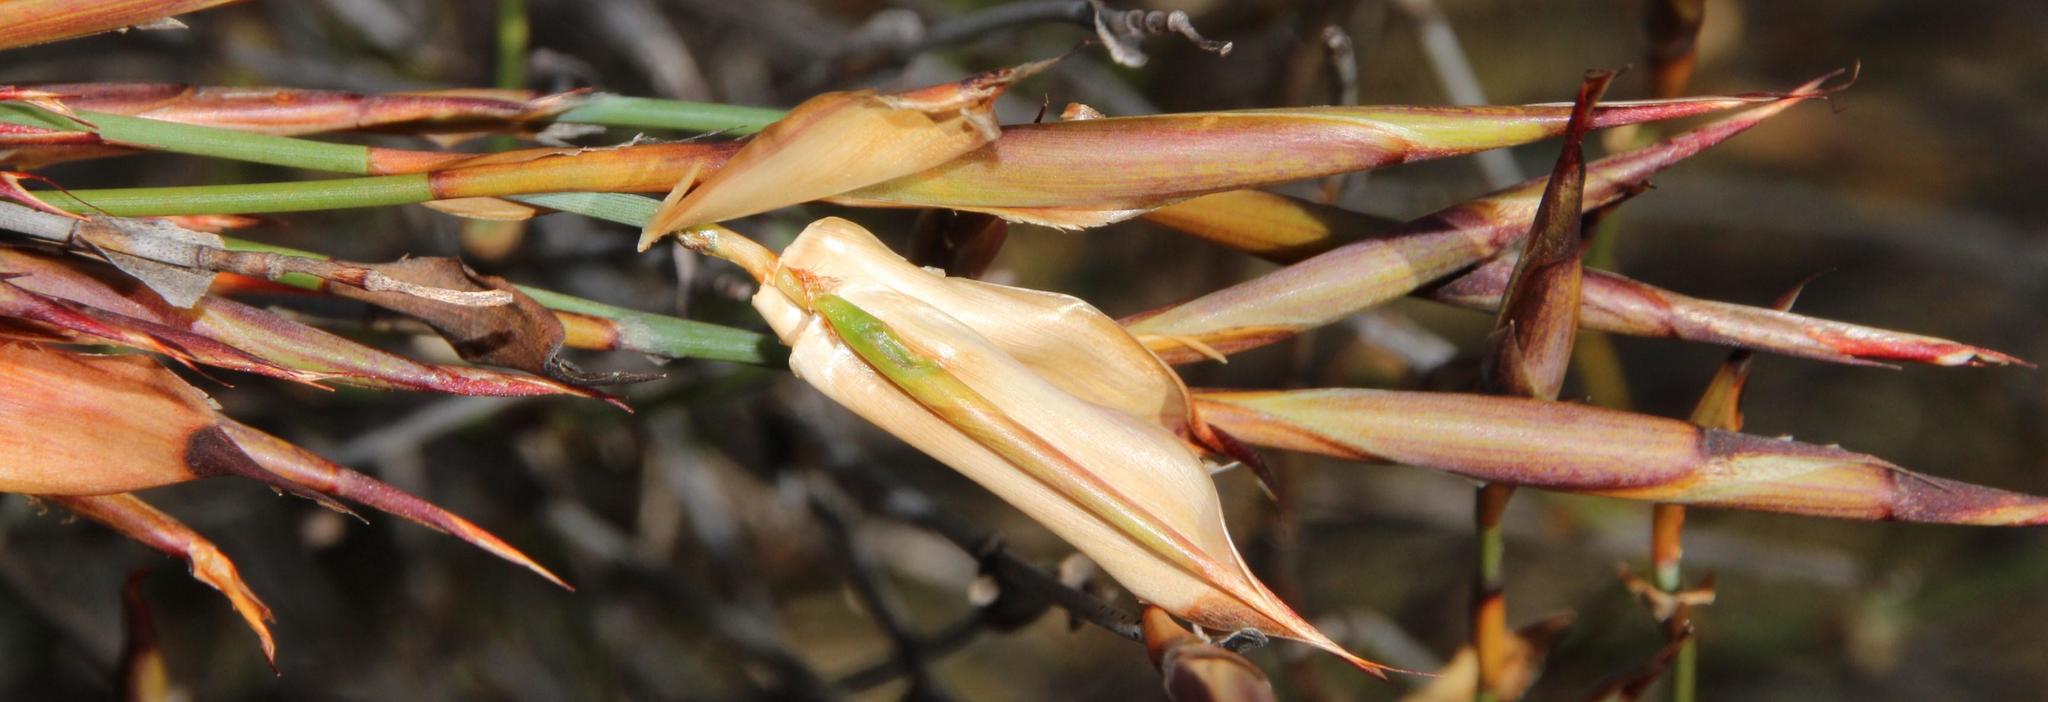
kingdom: Plantae
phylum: Tracheophyta
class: Liliopsida
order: Poales
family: Restionaceae
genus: Willdenowia
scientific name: Willdenowia incurvata
